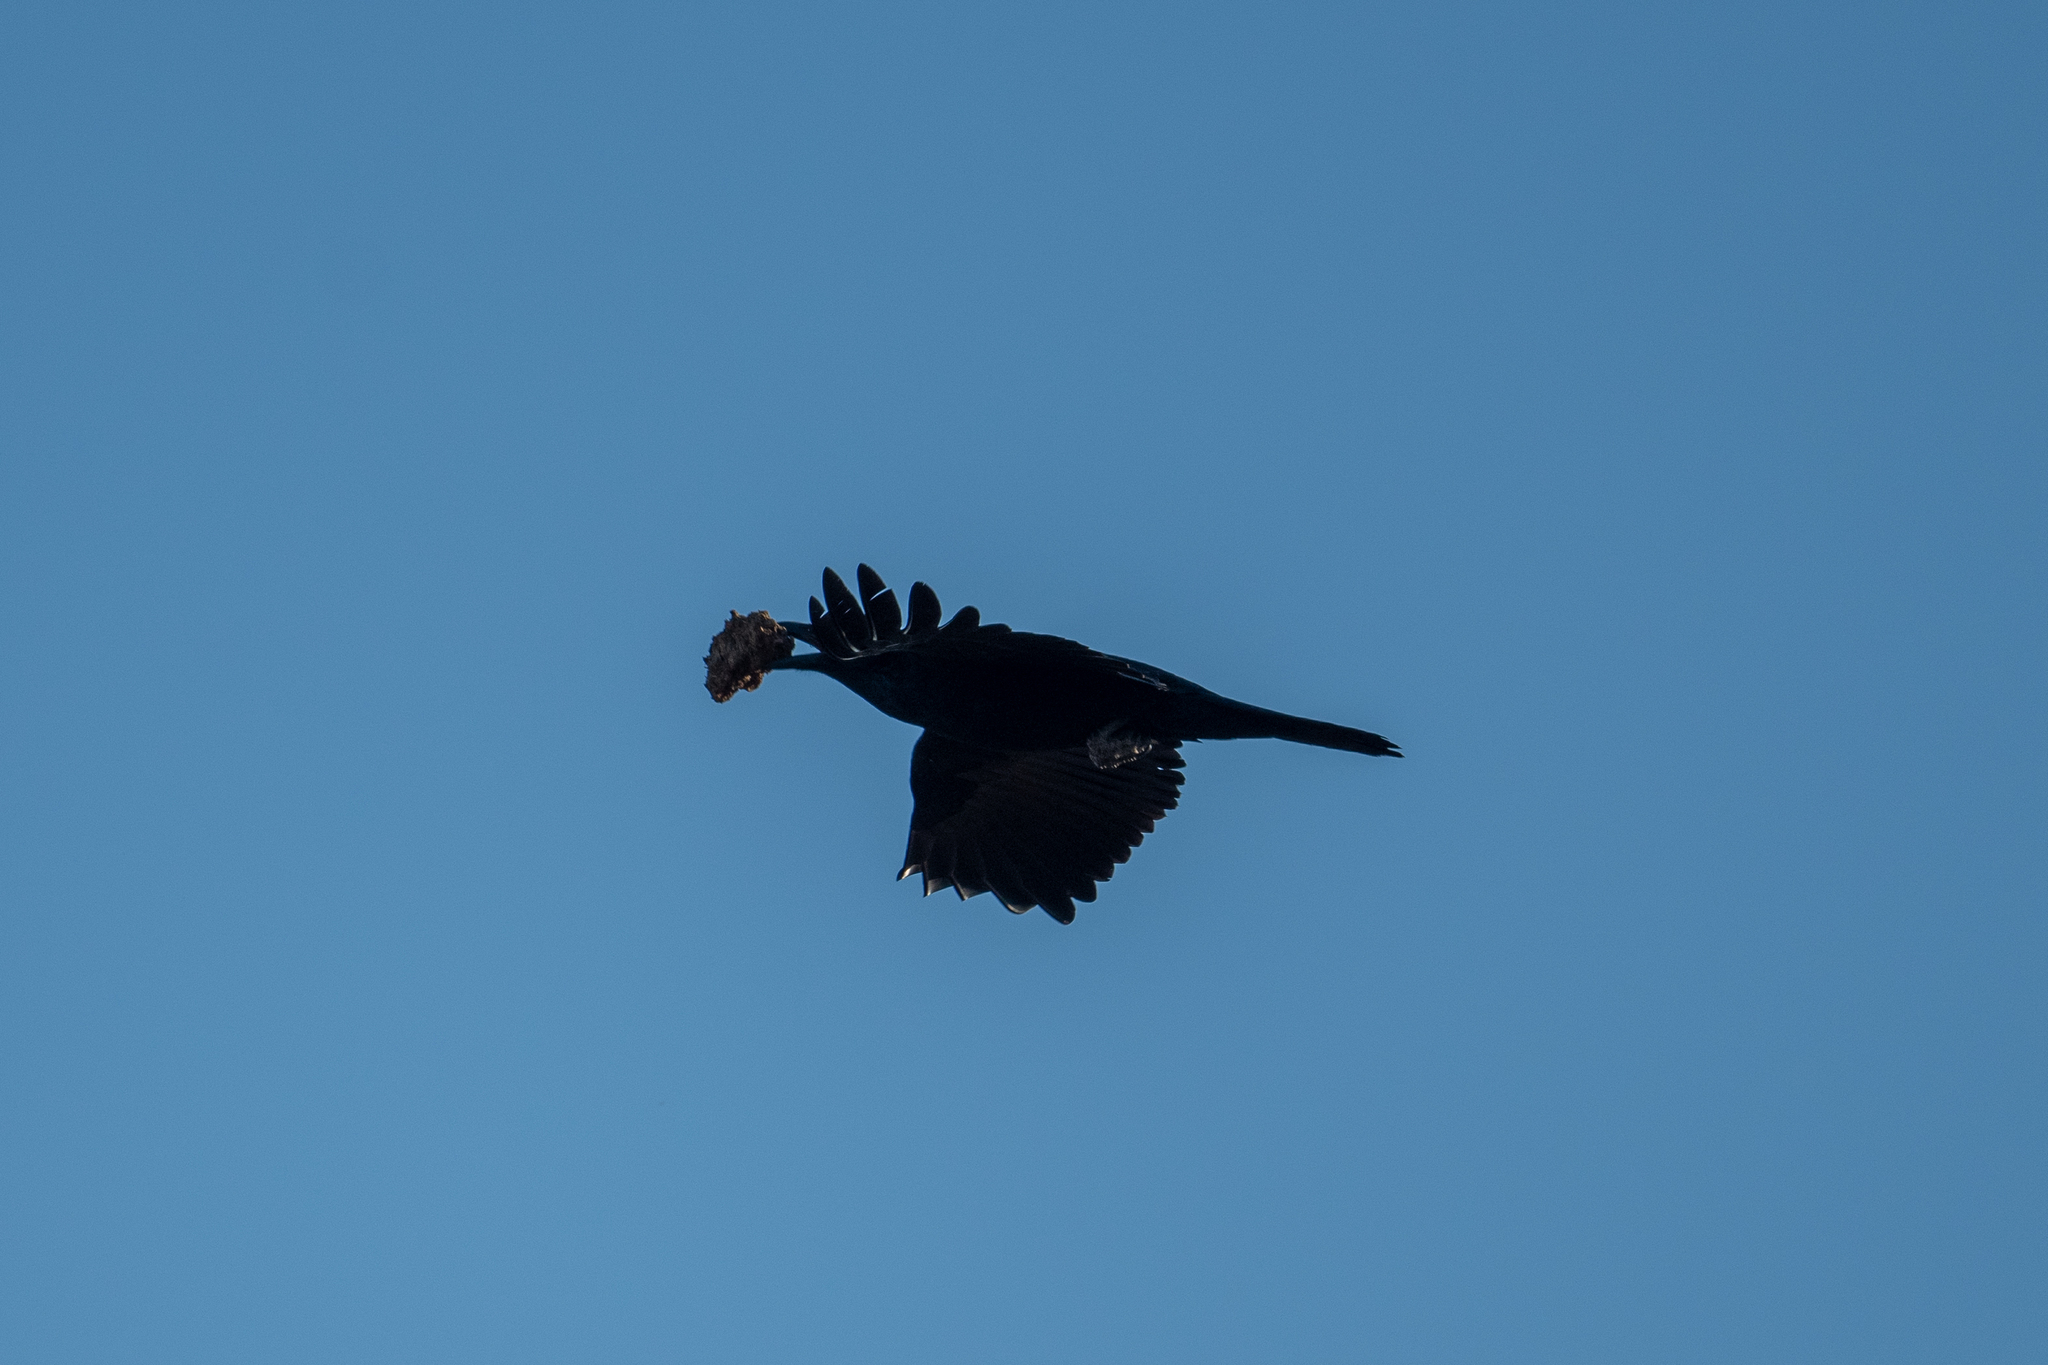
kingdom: Animalia
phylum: Chordata
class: Aves
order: Passeriformes
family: Corvidae
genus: Corvus
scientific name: Corvus corax
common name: Common raven
